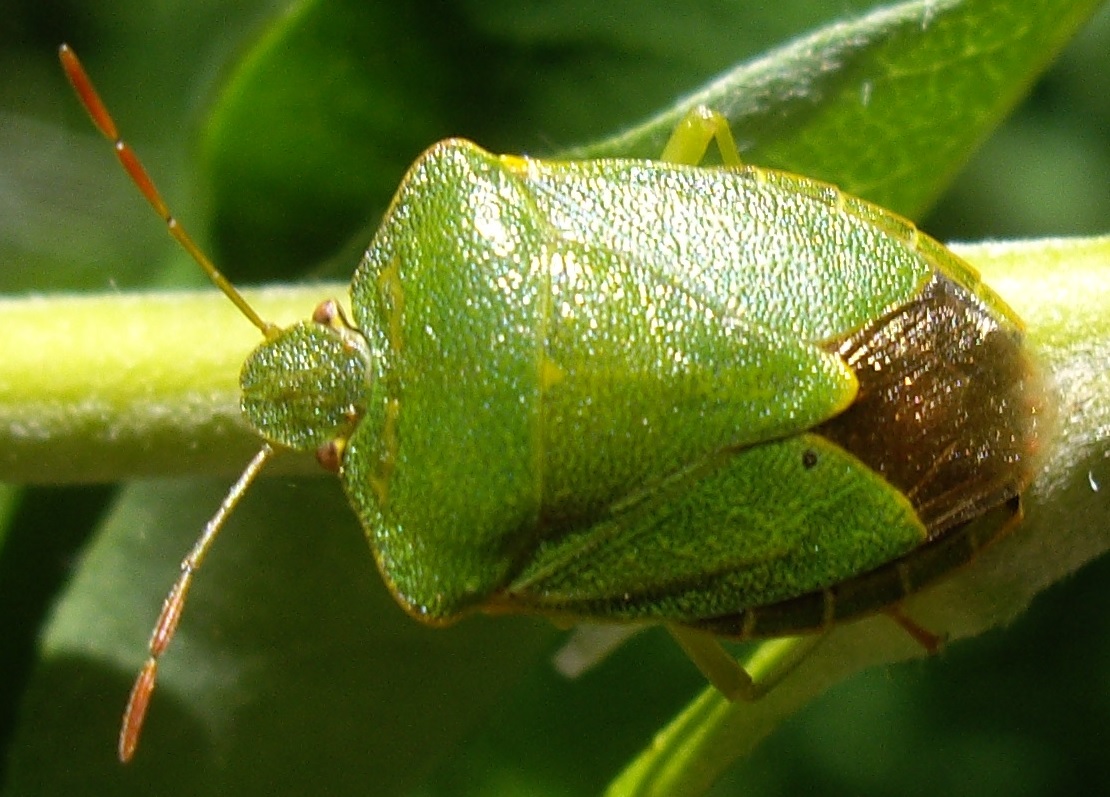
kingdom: Animalia
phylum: Arthropoda
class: Insecta
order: Hemiptera
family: Pentatomidae
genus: Palomena
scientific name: Palomena prasina
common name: Green shieldbug
